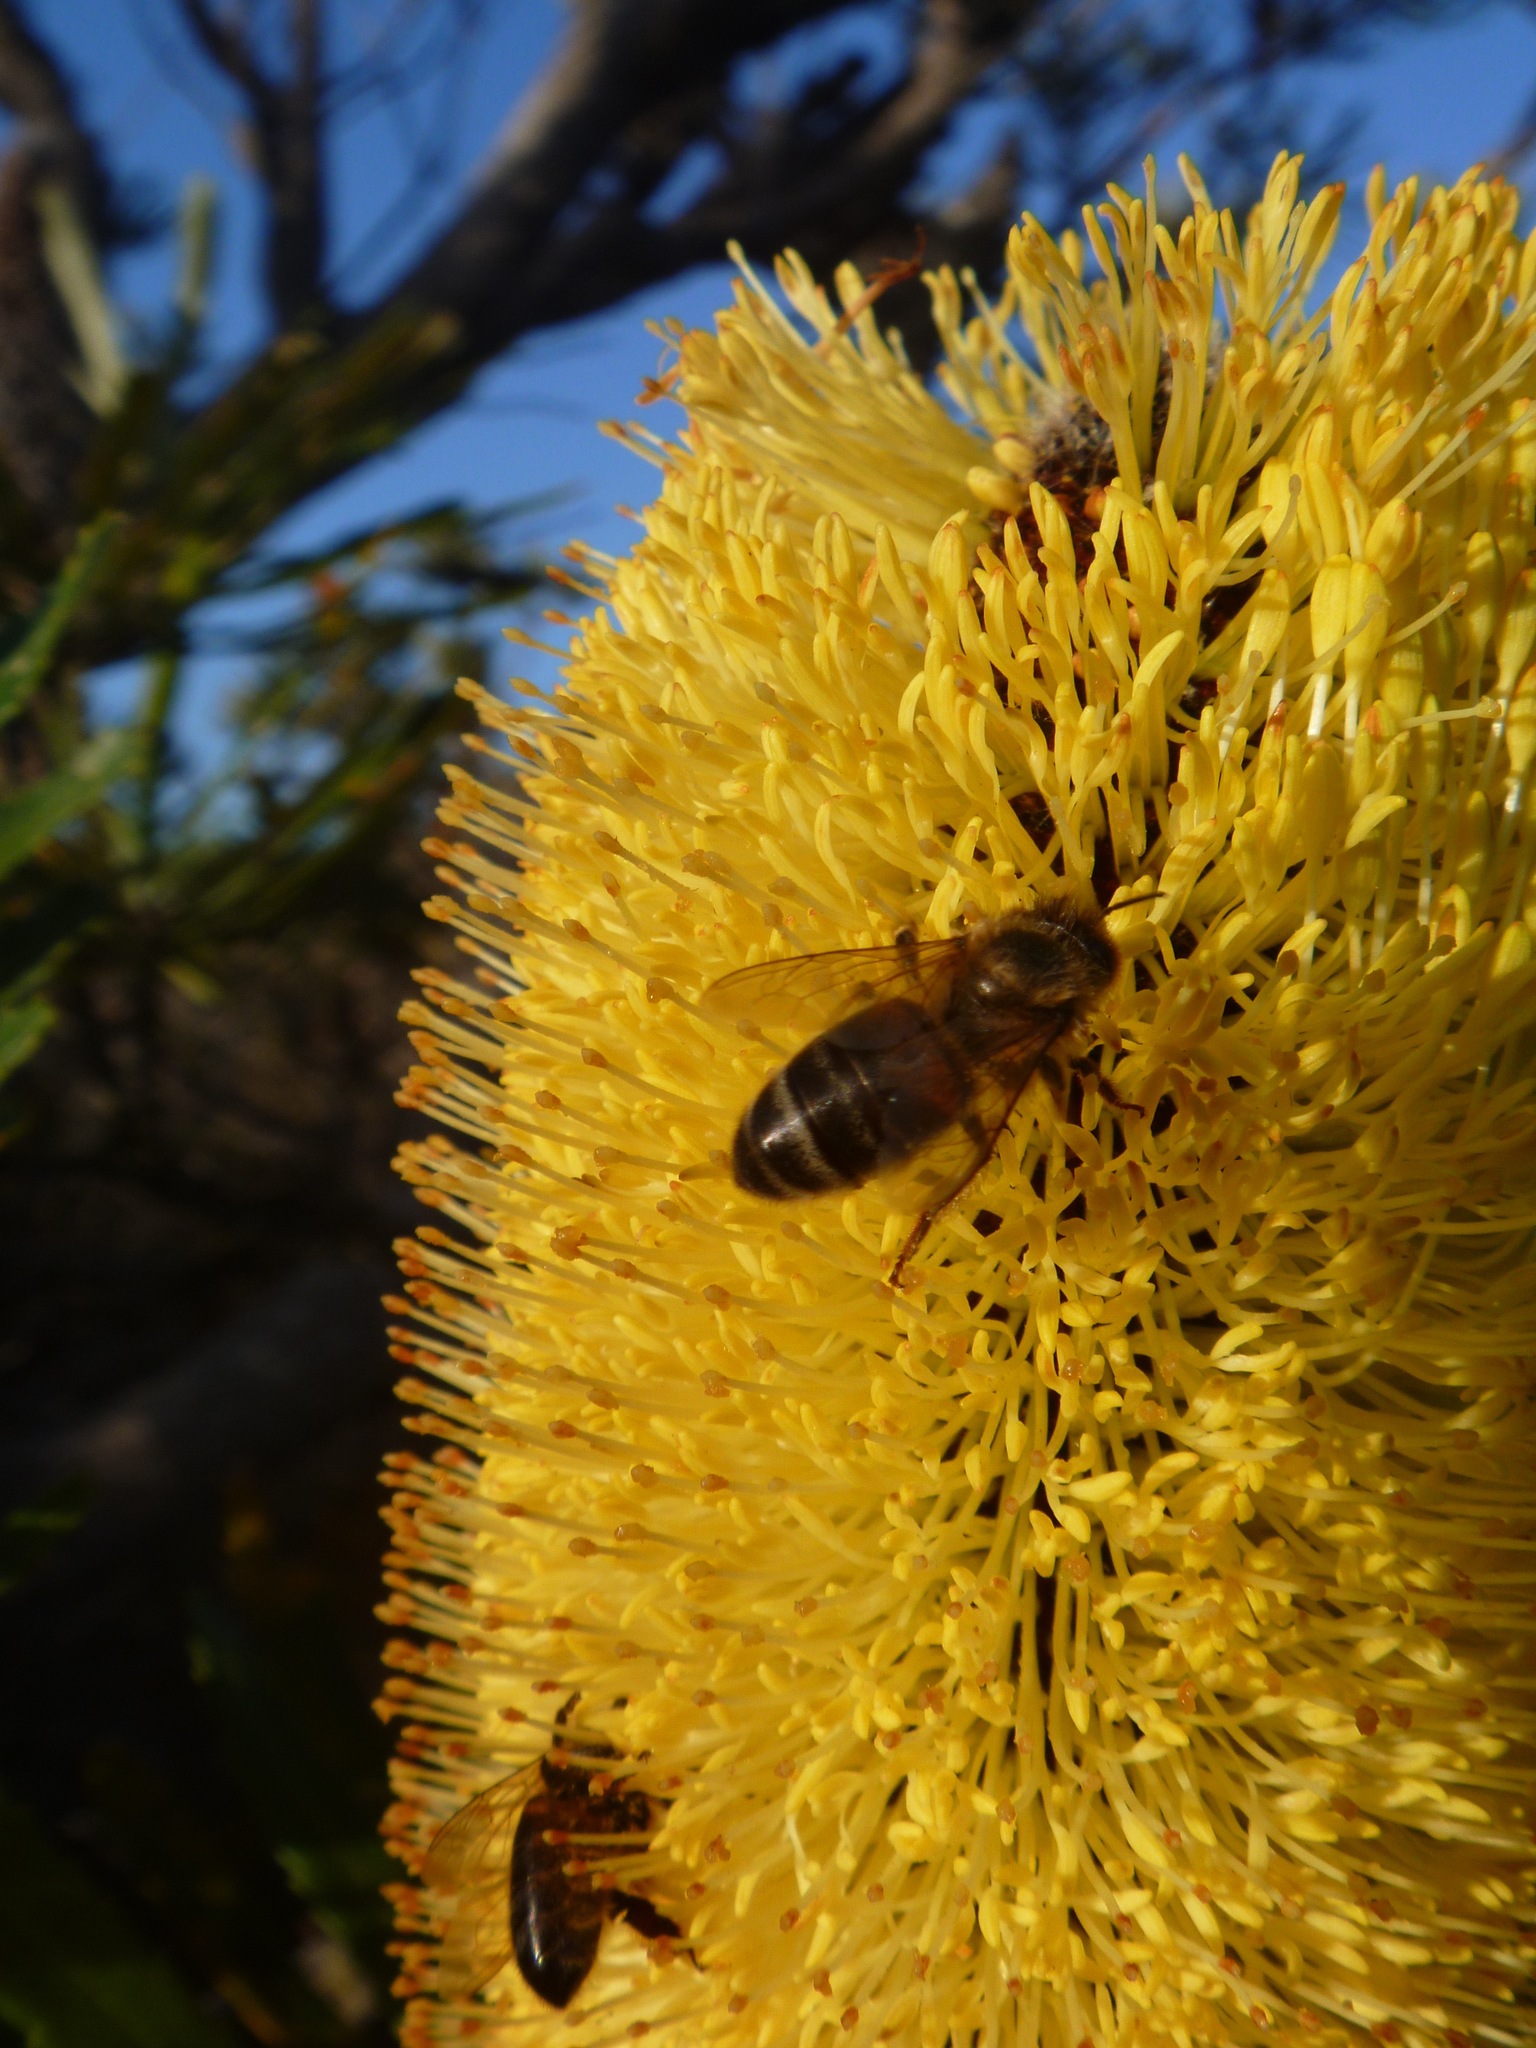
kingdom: Animalia
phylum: Arthropoda
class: Insecta
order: Hymenoptera
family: Apidae
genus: Apis
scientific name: Apis mellifera
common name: Honey bee
